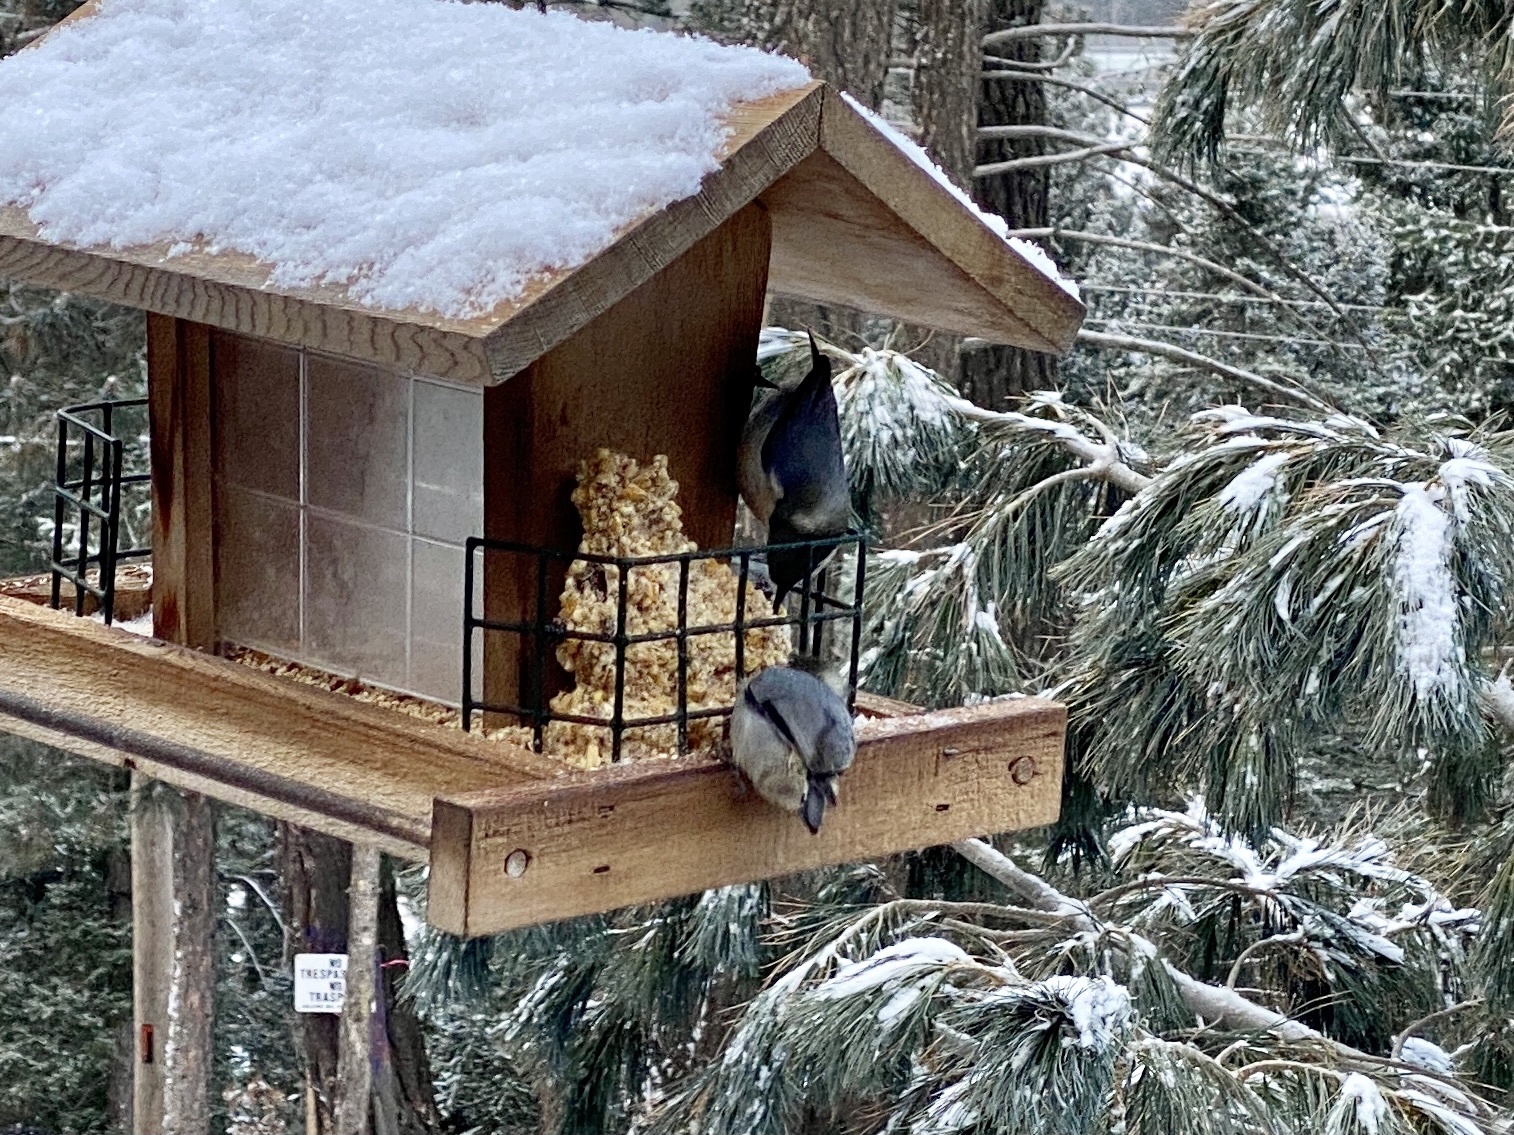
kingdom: Animalia
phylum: Chordata
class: Aves
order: Passeriformes
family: Sittidae
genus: Sitta
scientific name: Sitta pygmaea
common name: Pygmy nuthatch
